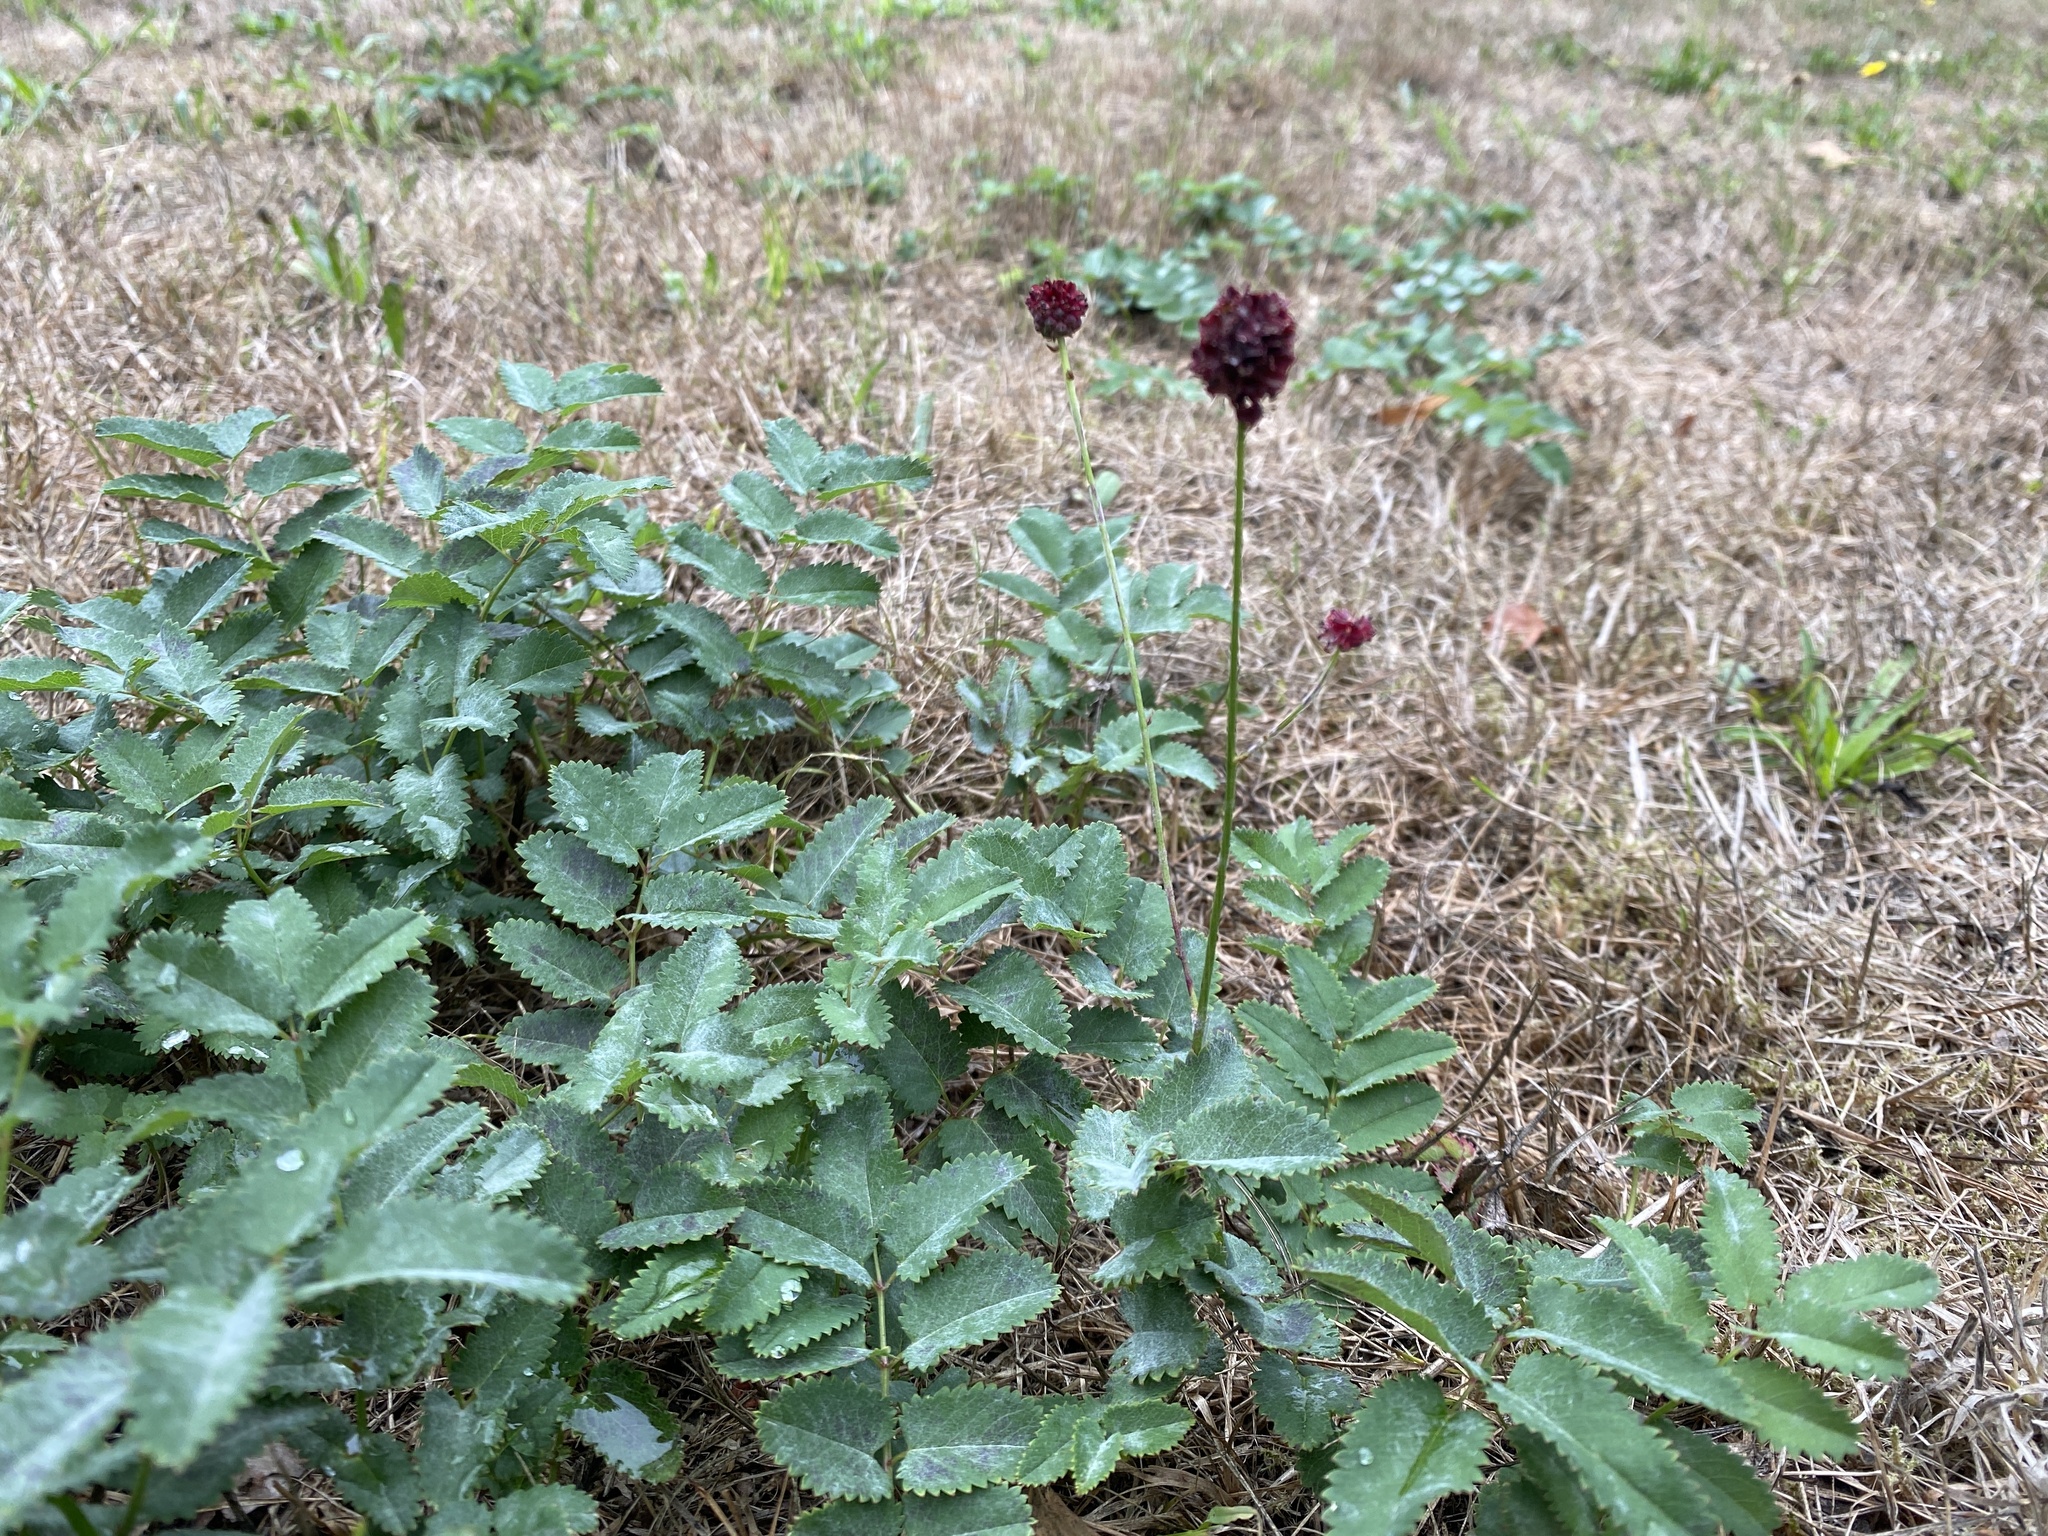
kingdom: Plantae
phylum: Tracheophyta
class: Magnoliopsida
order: Rosales
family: Rosaceae
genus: Sanguisorba
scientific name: Sanguisorba officinalis
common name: Great burnet
